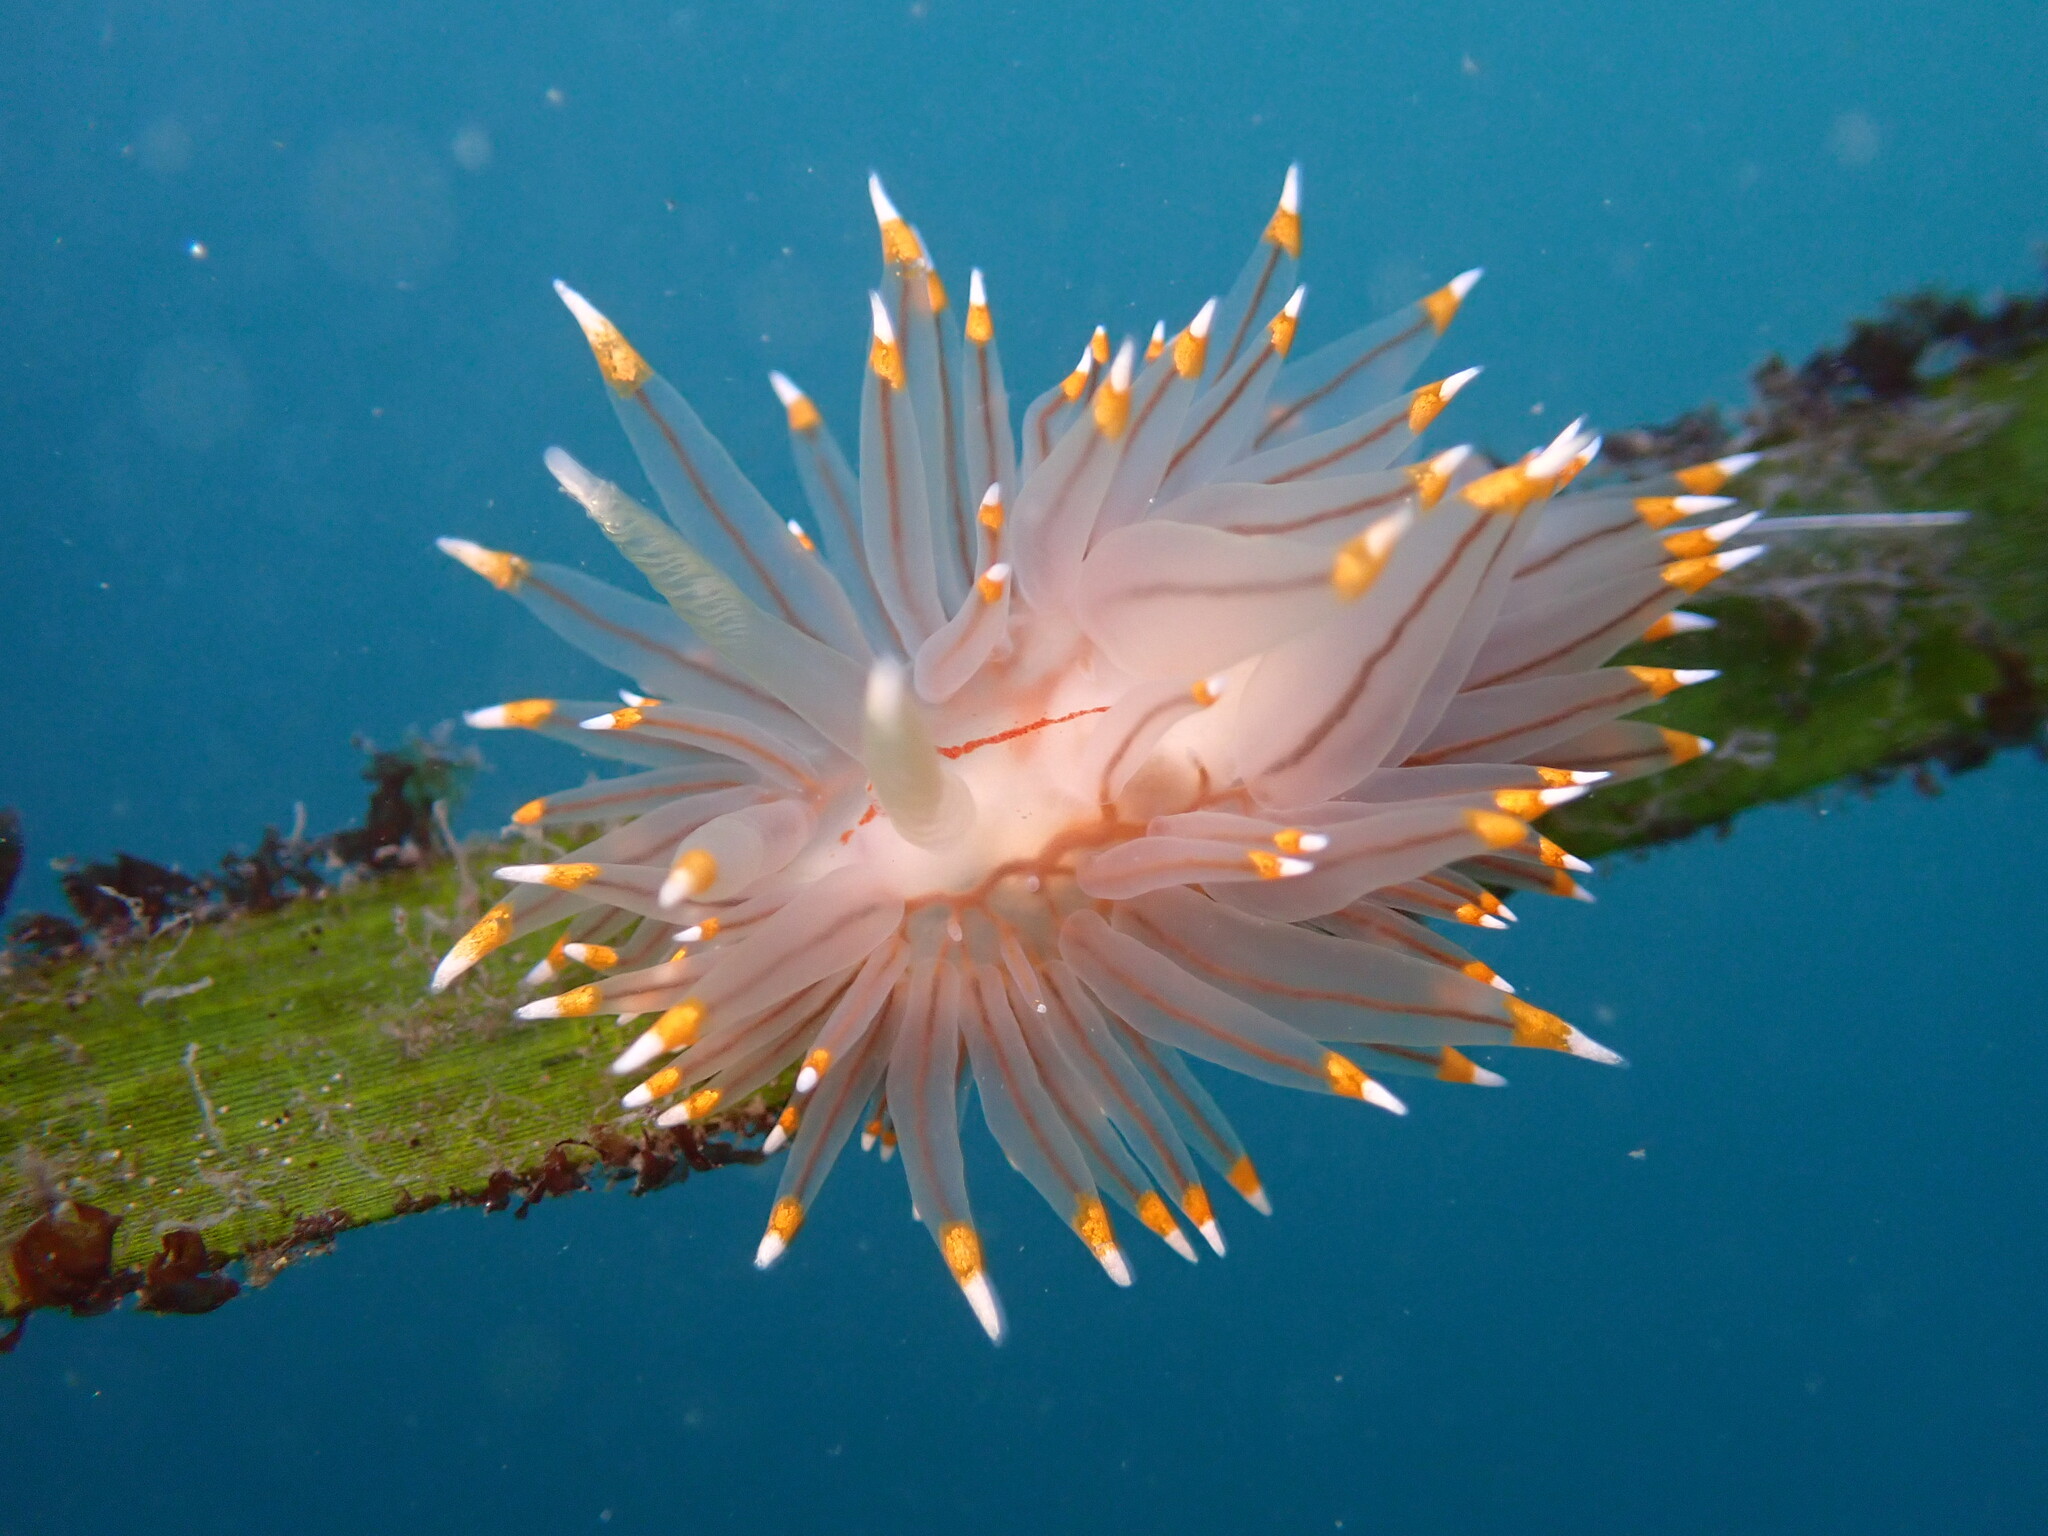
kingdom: Animalia
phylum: Mollusca
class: Gastropoda
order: Nudibranchia
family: Janolidae
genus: Antiopella
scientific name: Antiopella fusca
